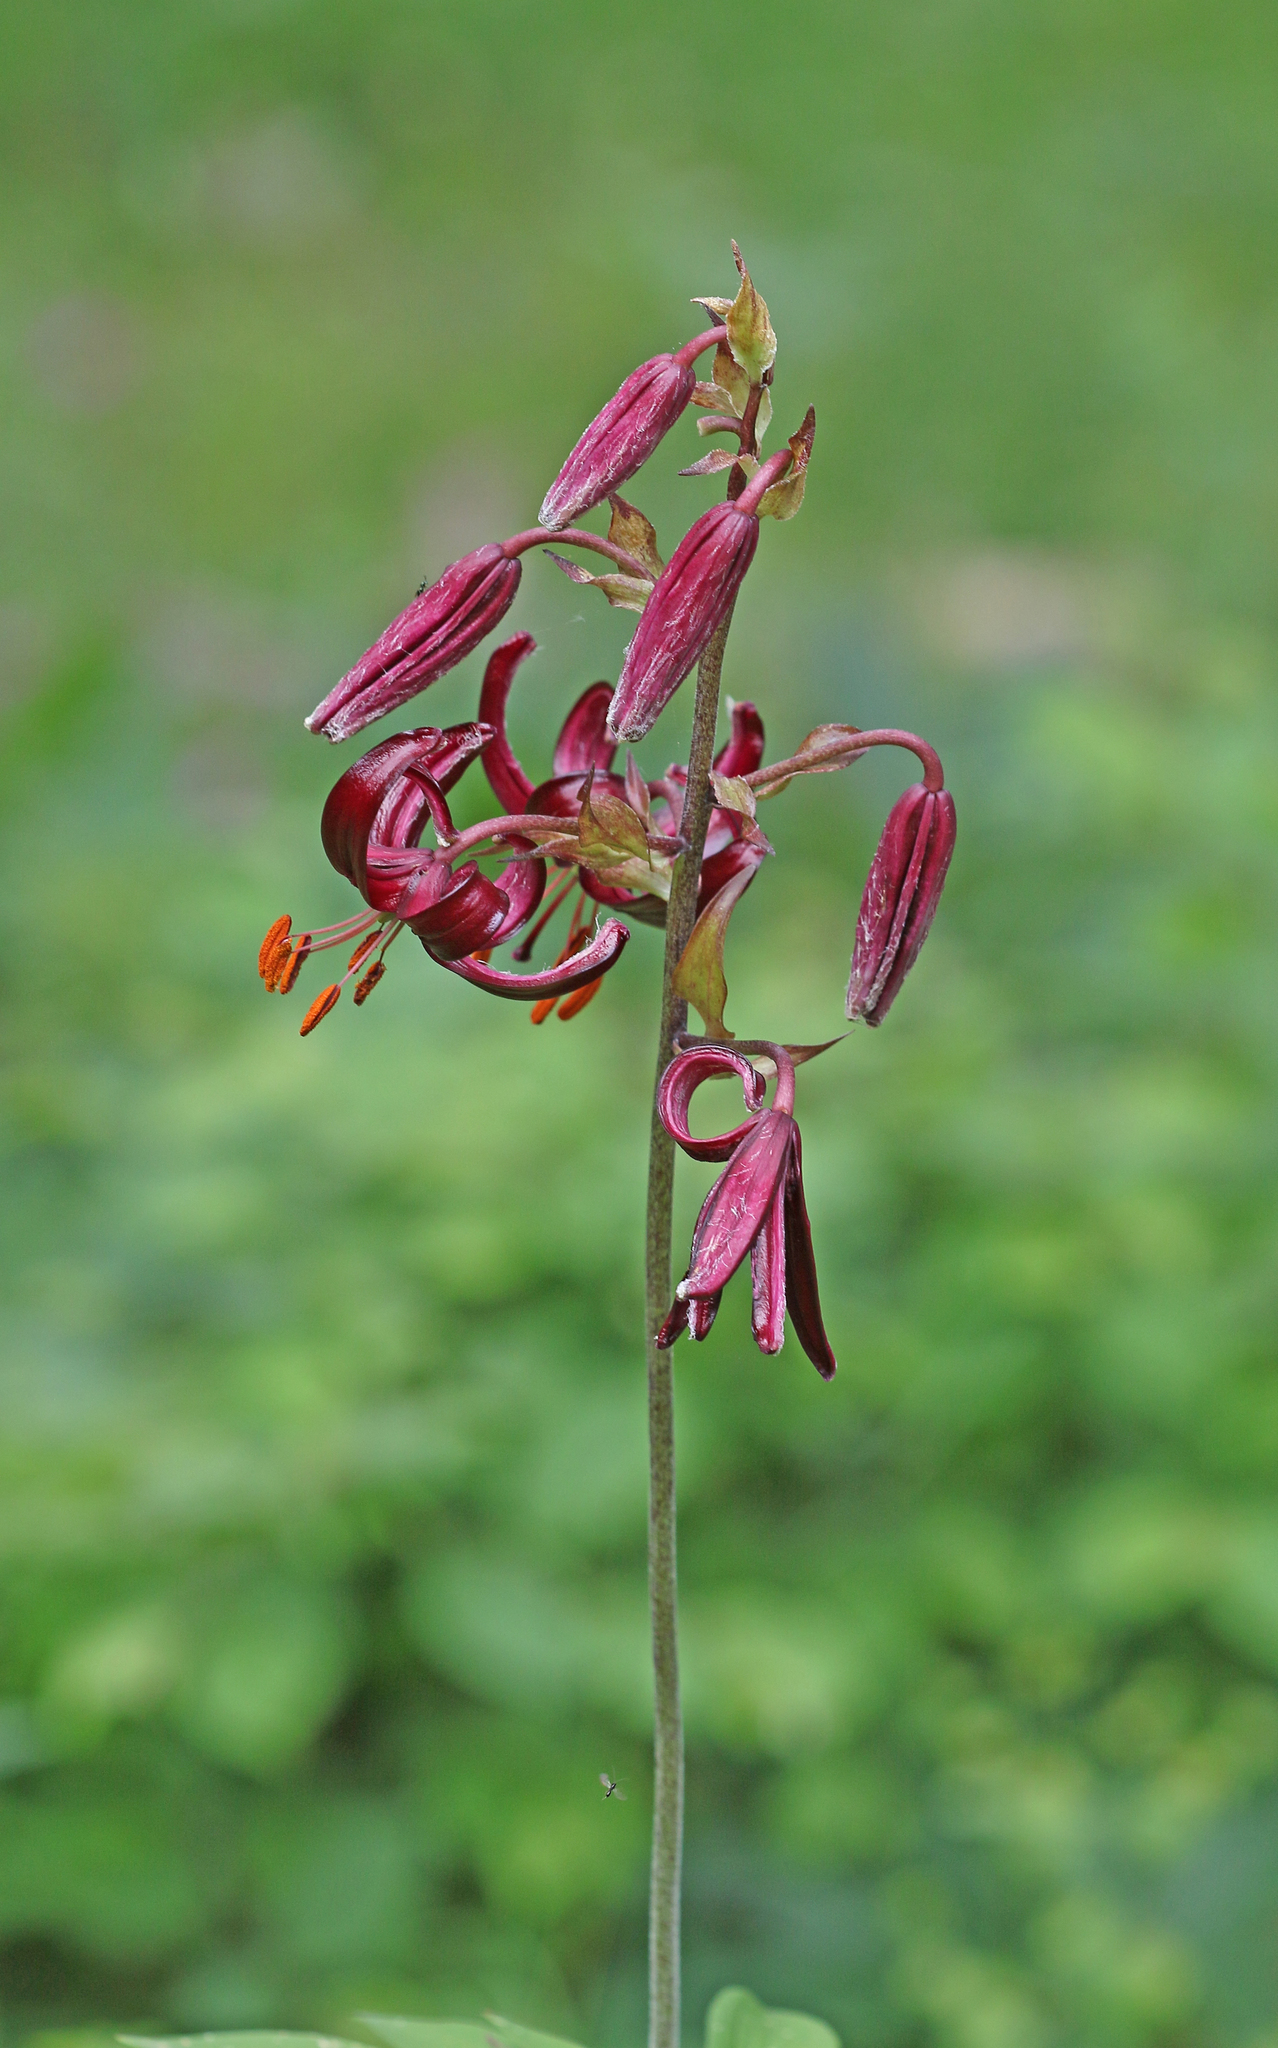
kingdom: Plantae
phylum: Tracheophyta
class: Liliopsida
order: Liliales
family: Liliaceae
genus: Lilium
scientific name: Lilium martagon
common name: Martagon lily
